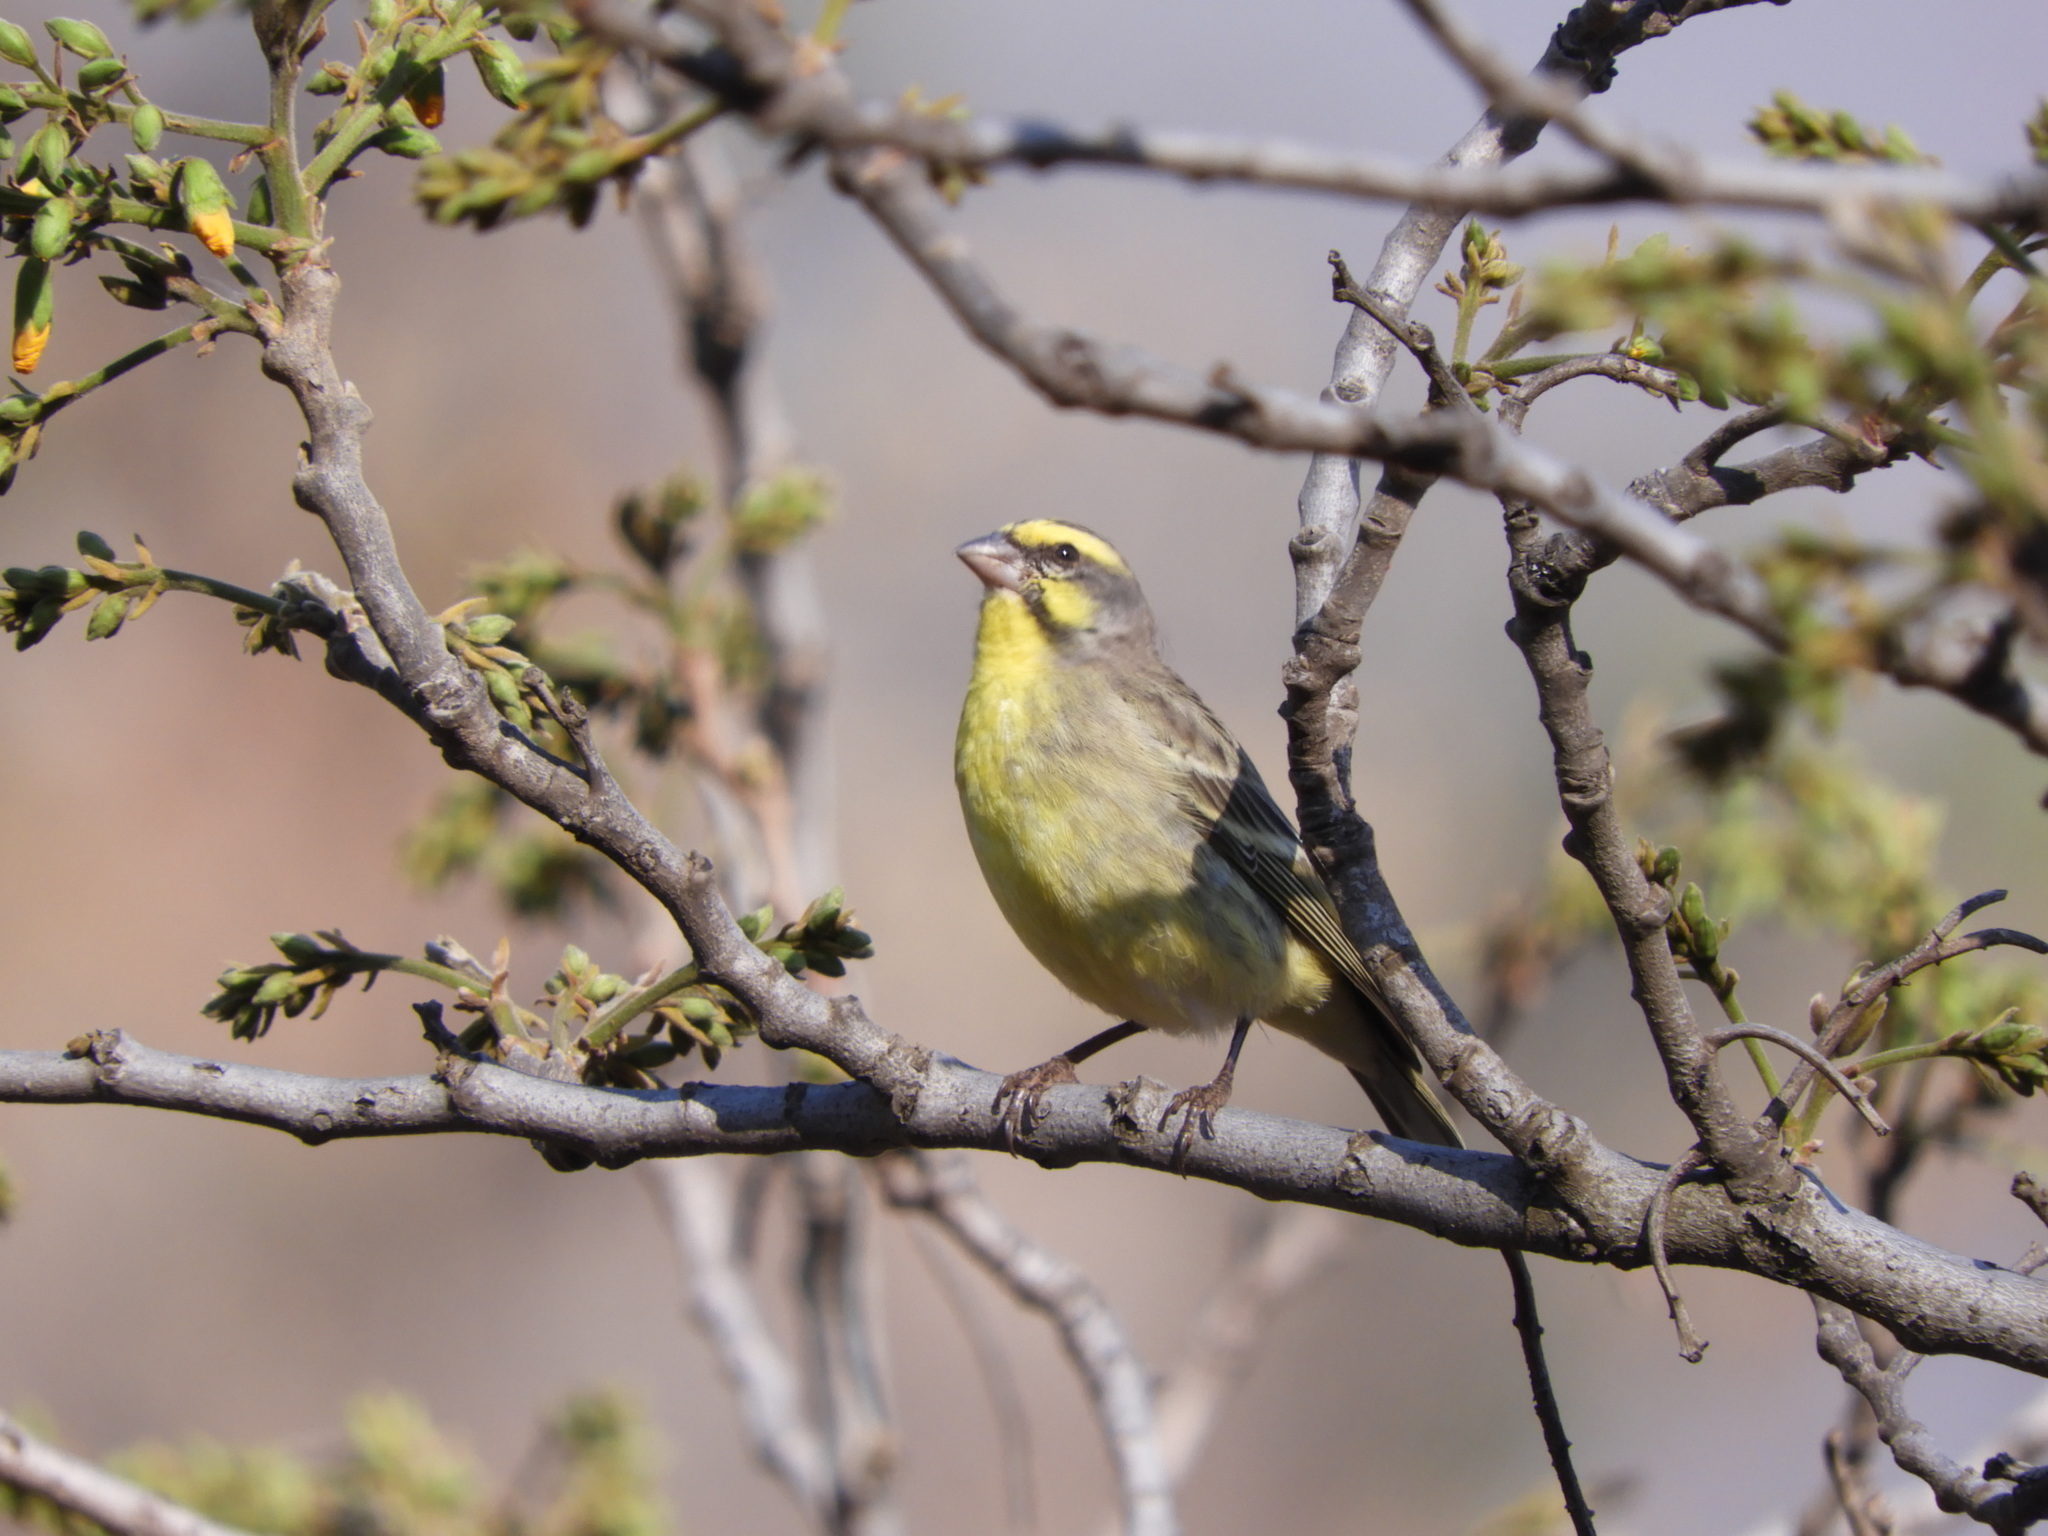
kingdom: Animalia
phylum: Chordata
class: Aves
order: Passeriformes
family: Fringillidae
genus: Crithagra
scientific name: Crithagra mozambica
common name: Yellow-fronted canary
